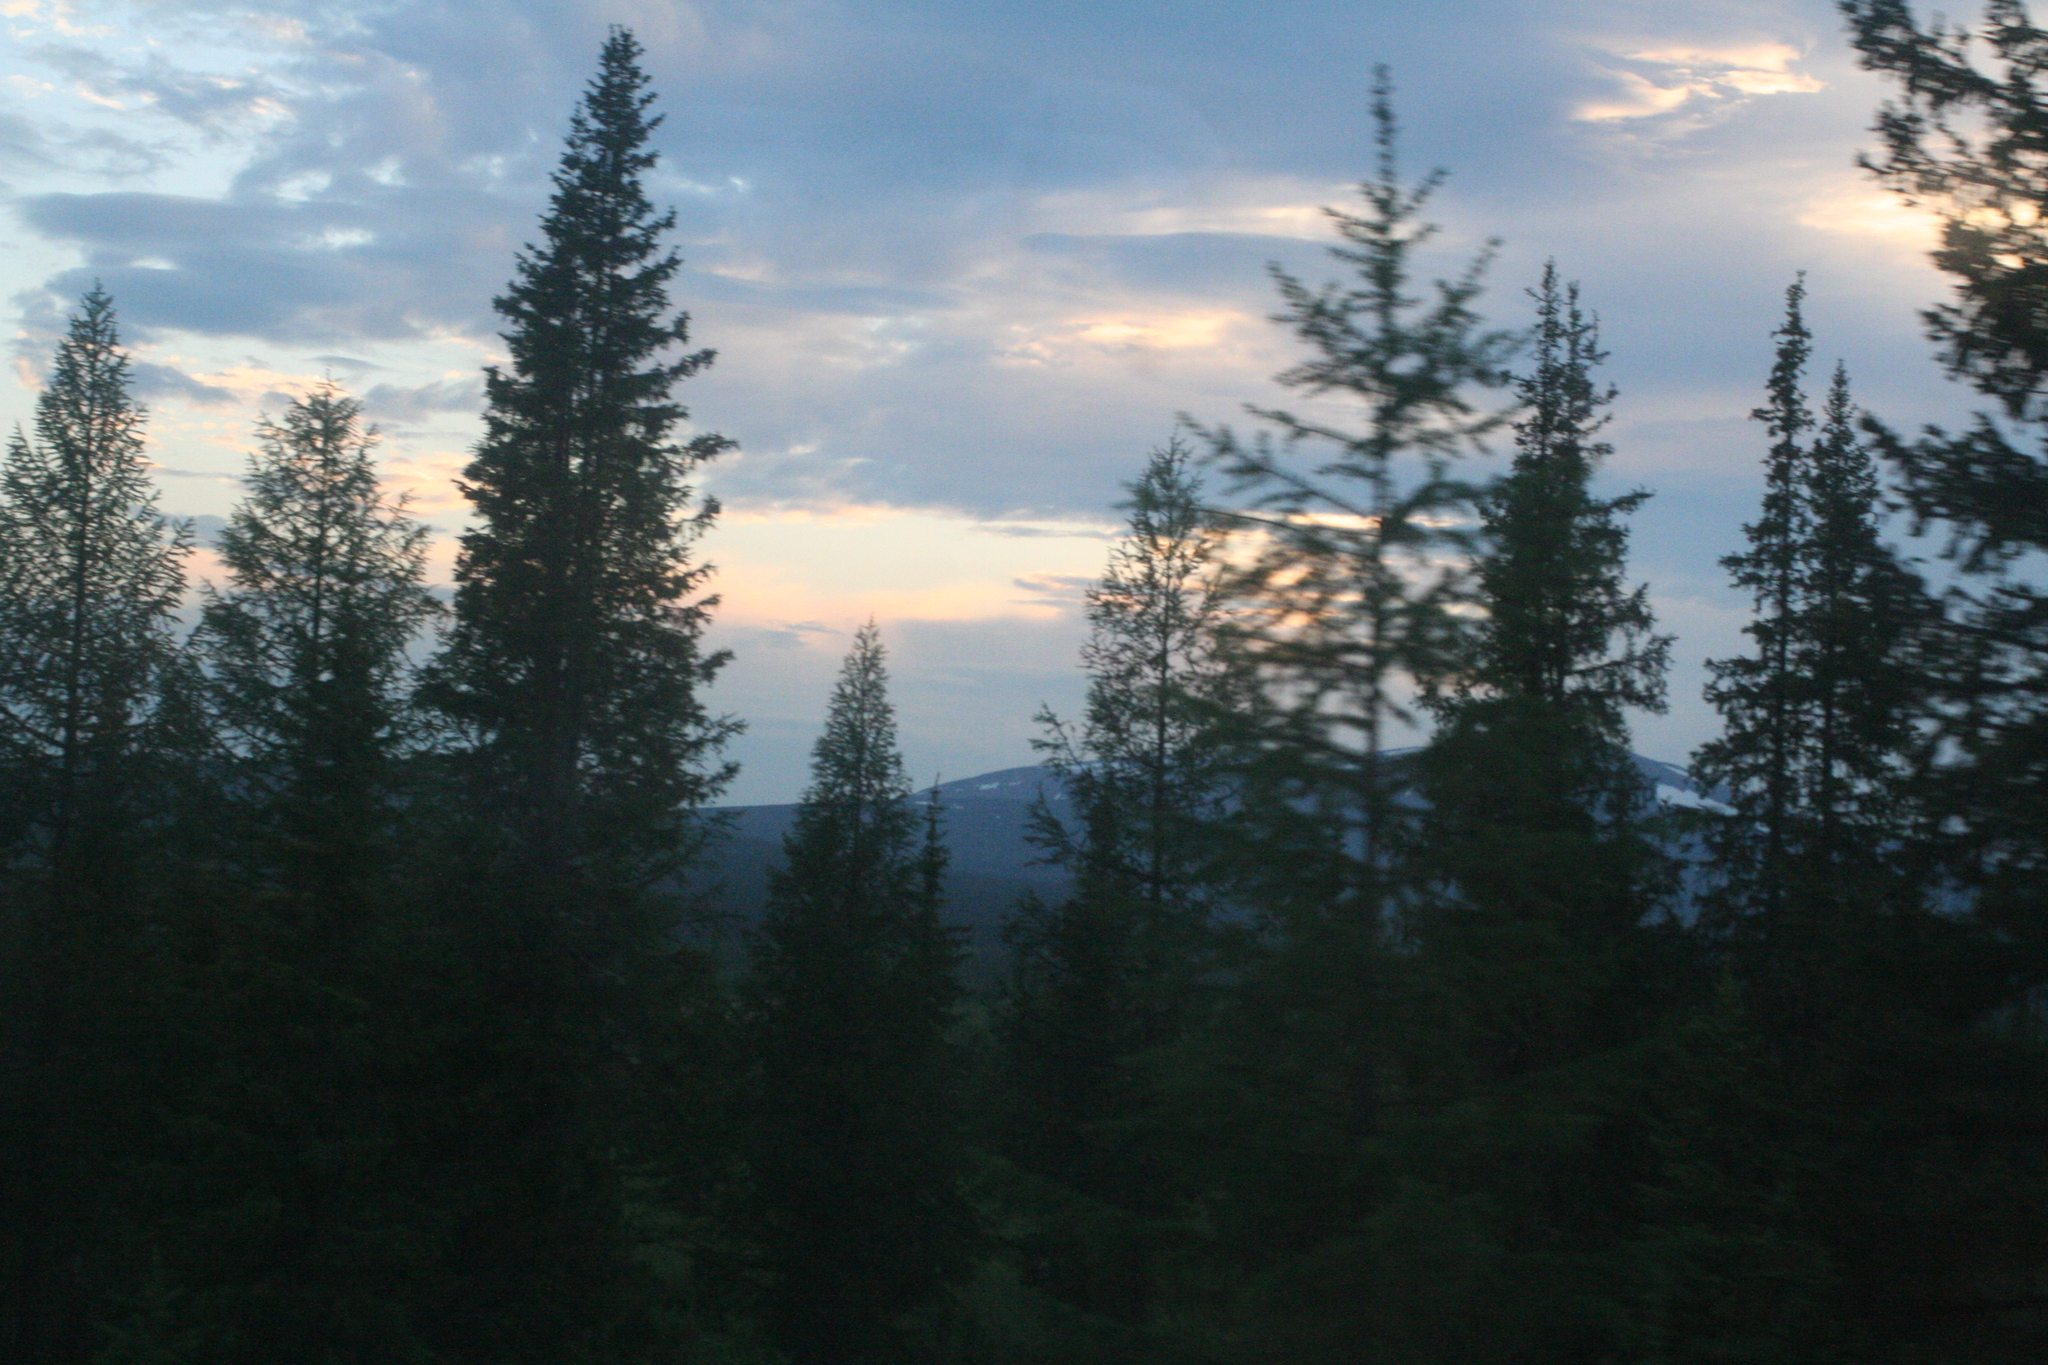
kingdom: Plantae
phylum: Tracheophyta
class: Pinopsida
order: Pinales
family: Pinaceae
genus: Picea
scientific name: Picea obovata
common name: Siberian spruce
